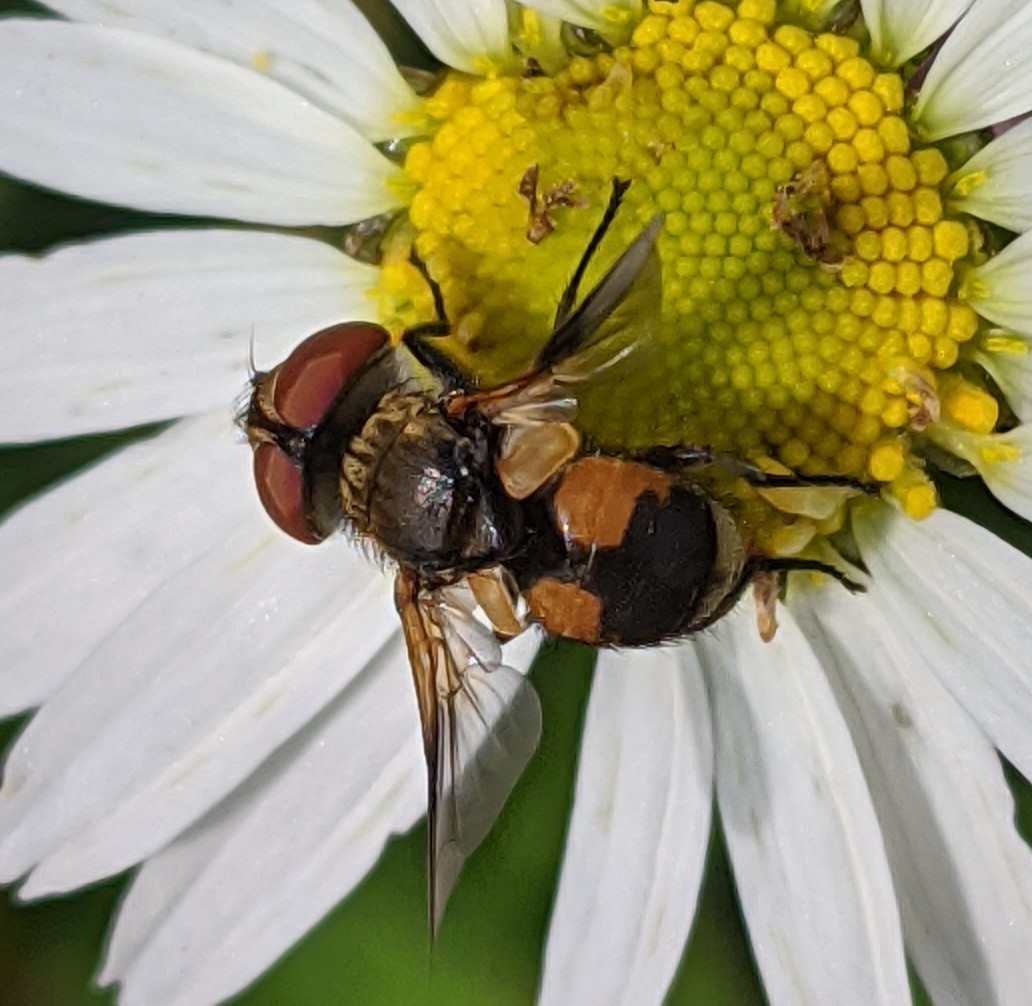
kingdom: Animalia
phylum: Arthropoda
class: Insecta
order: Diptera
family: Tachinidae
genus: Ectophasia
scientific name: Ectophasia crassipennis
